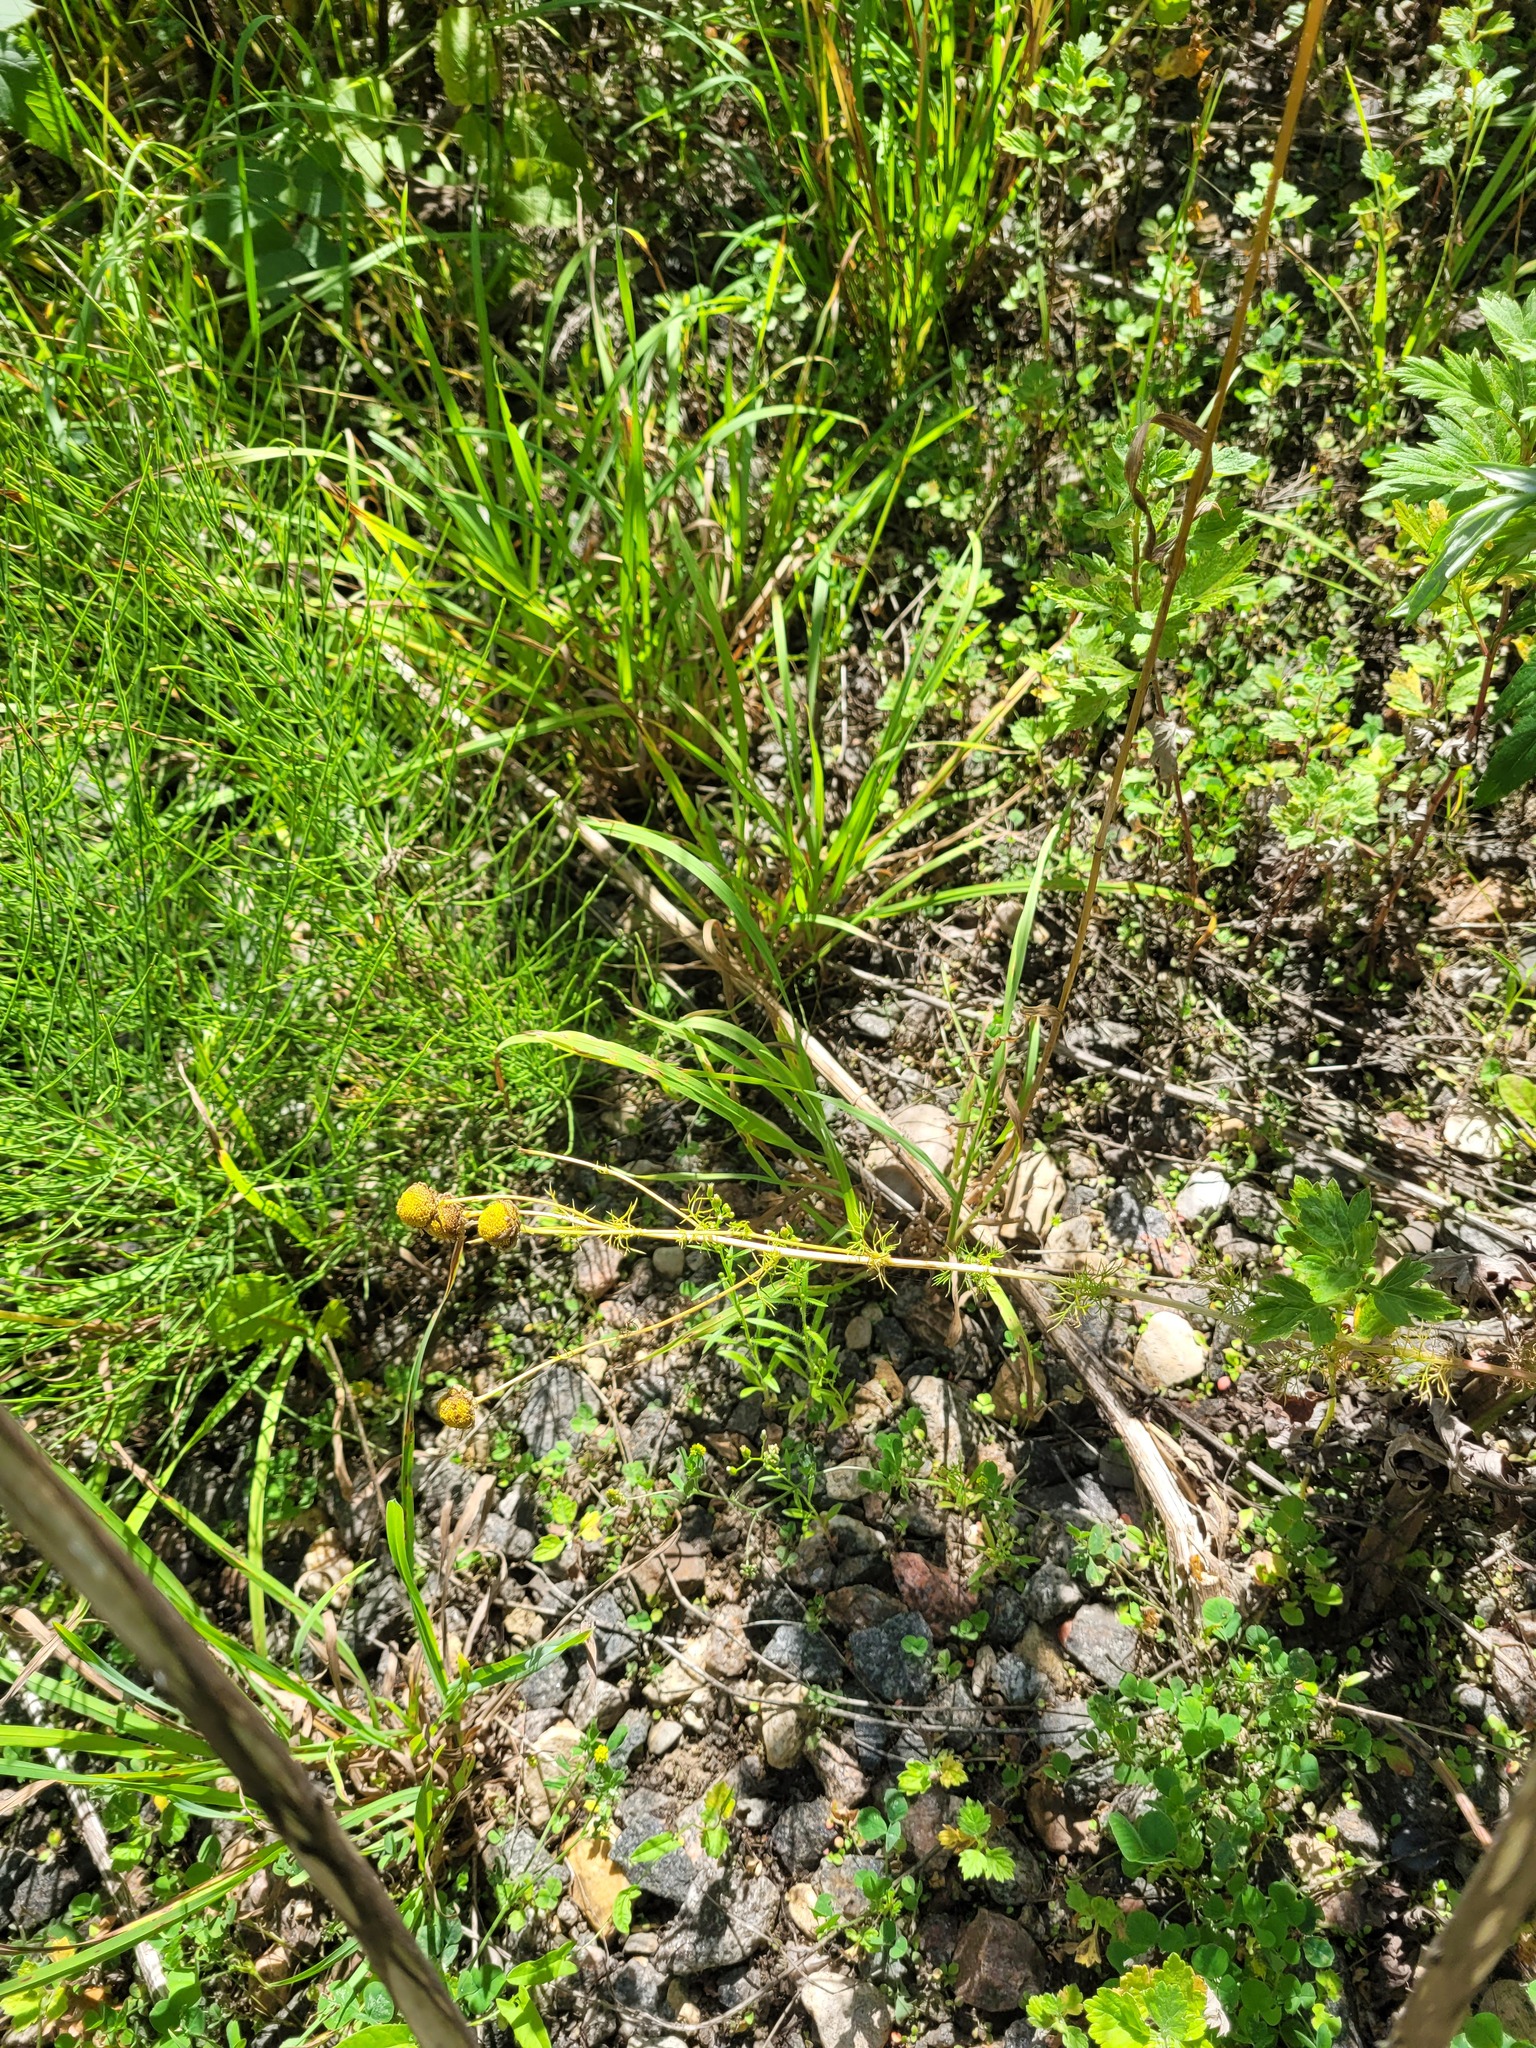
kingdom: Plantae
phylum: Tracheophyta
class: Magnoliopsida
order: Asterales
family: Asteraceae
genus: Tripleurospermum
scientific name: Tripleurospermum inodorum
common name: Scentless mayweed
